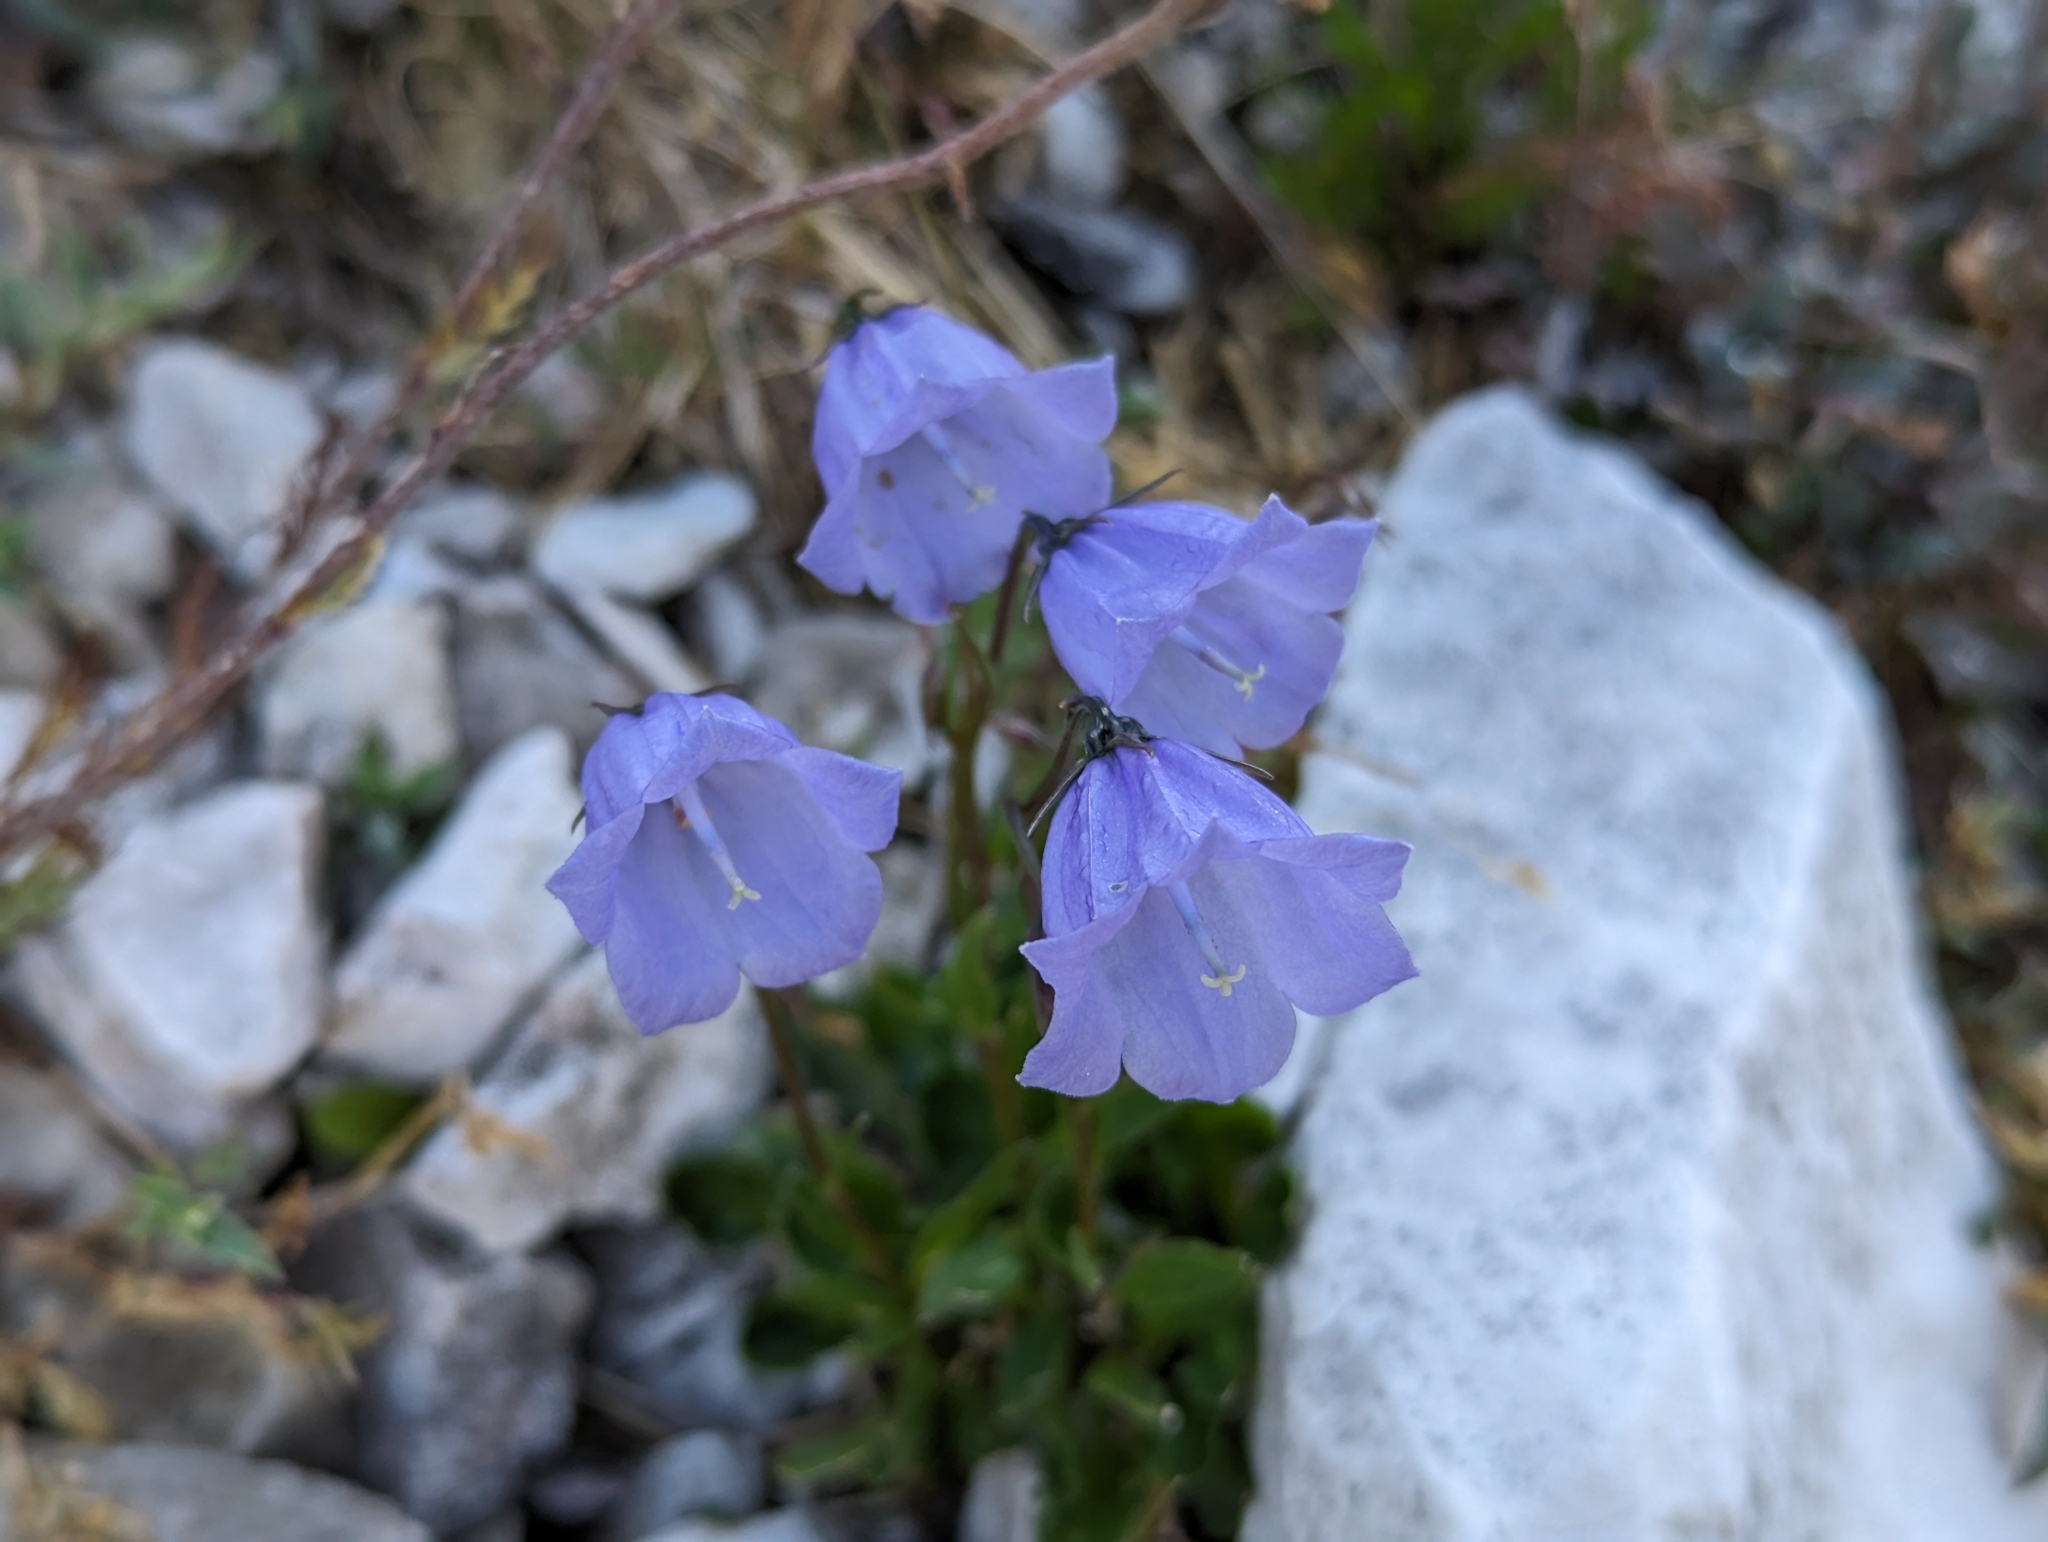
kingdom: Plantae
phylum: Tracheophyta
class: Magnoliopsida
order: Asterales
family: Campanulaceae
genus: Campanula
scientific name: Campanula cochleariifolia
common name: Fairies'-thimbles
